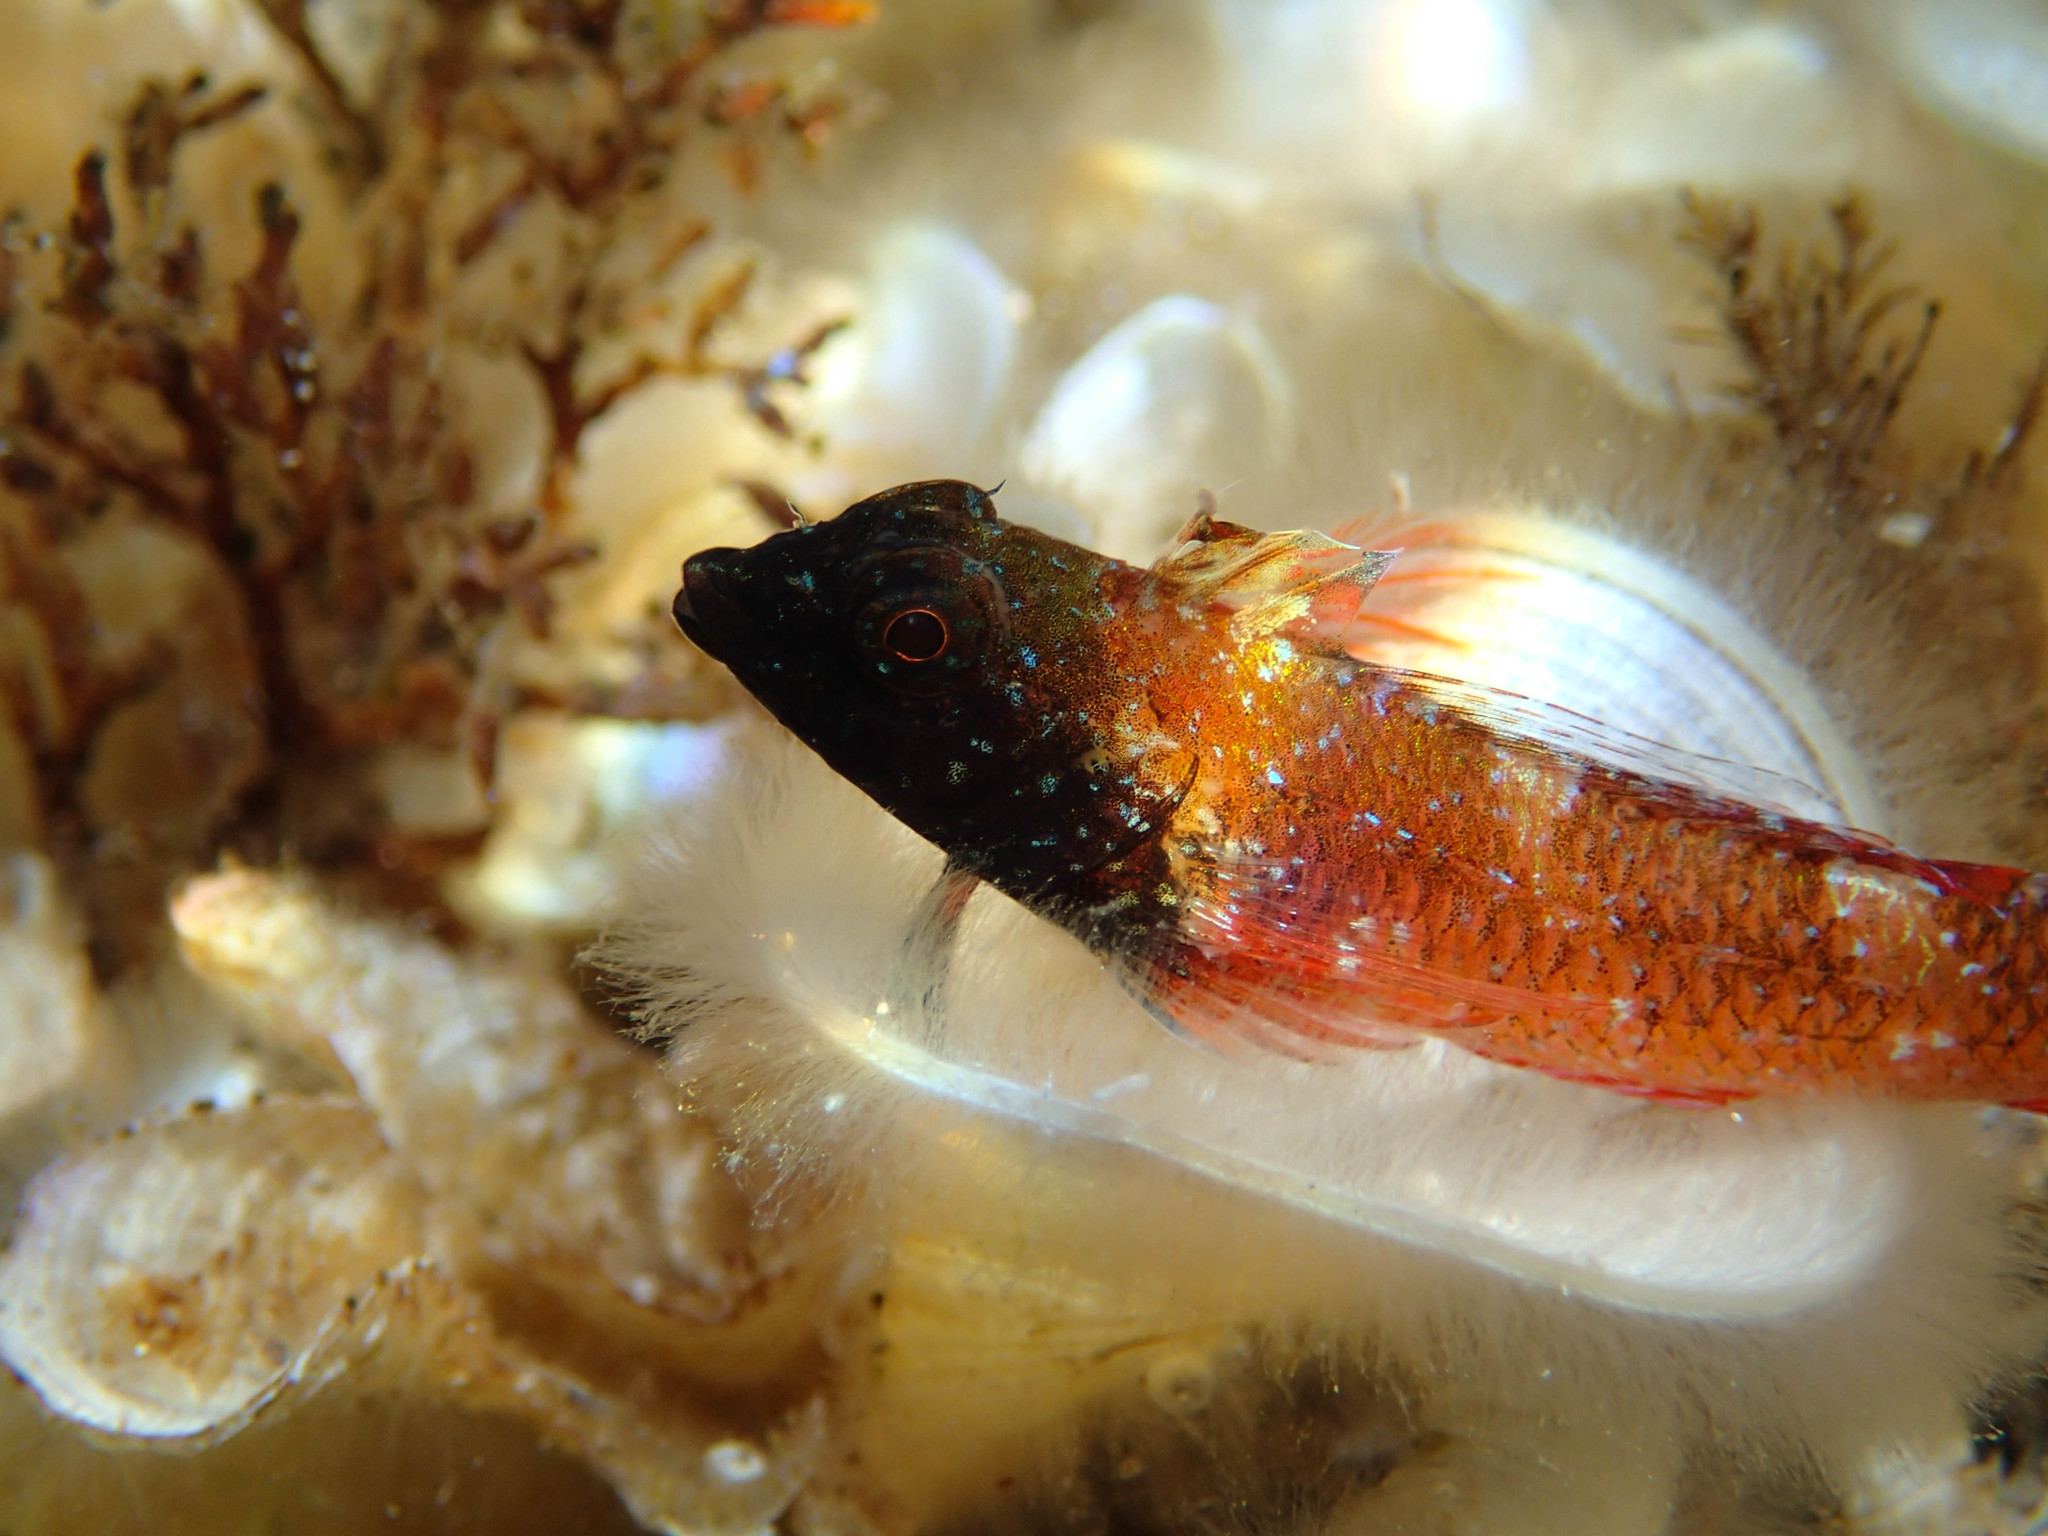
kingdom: Animalia
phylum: Chordata
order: Perciformes
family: Tripterygiidae
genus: Tripterygion
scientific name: Tripterygion tripteronotum
